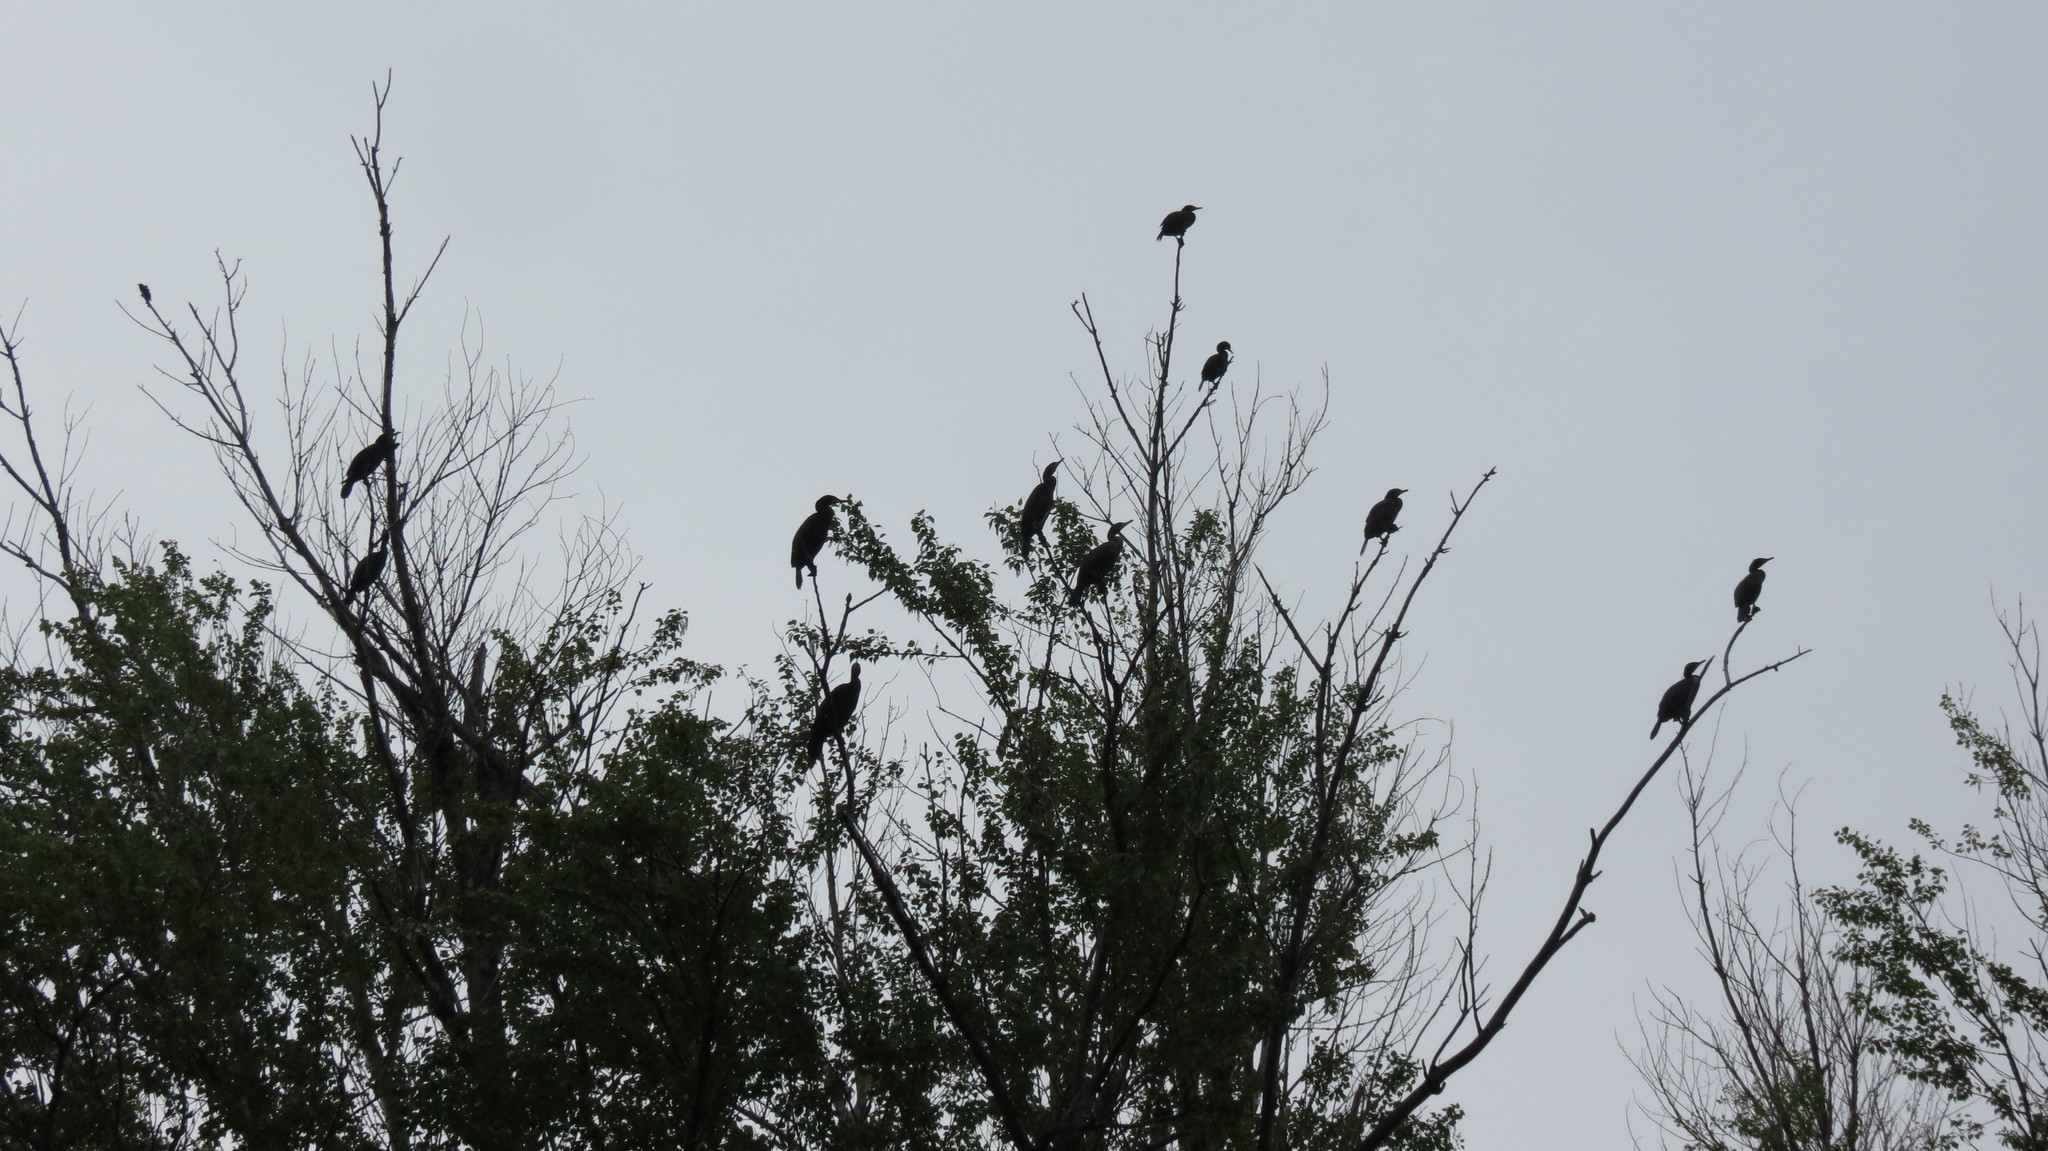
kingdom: Animalia
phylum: Chordata
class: Aves
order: Suliformes
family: Phalacrocoracidae
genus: Phalacrocorax
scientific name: Phalacrocorax auritus
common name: Double-crested cormorant
